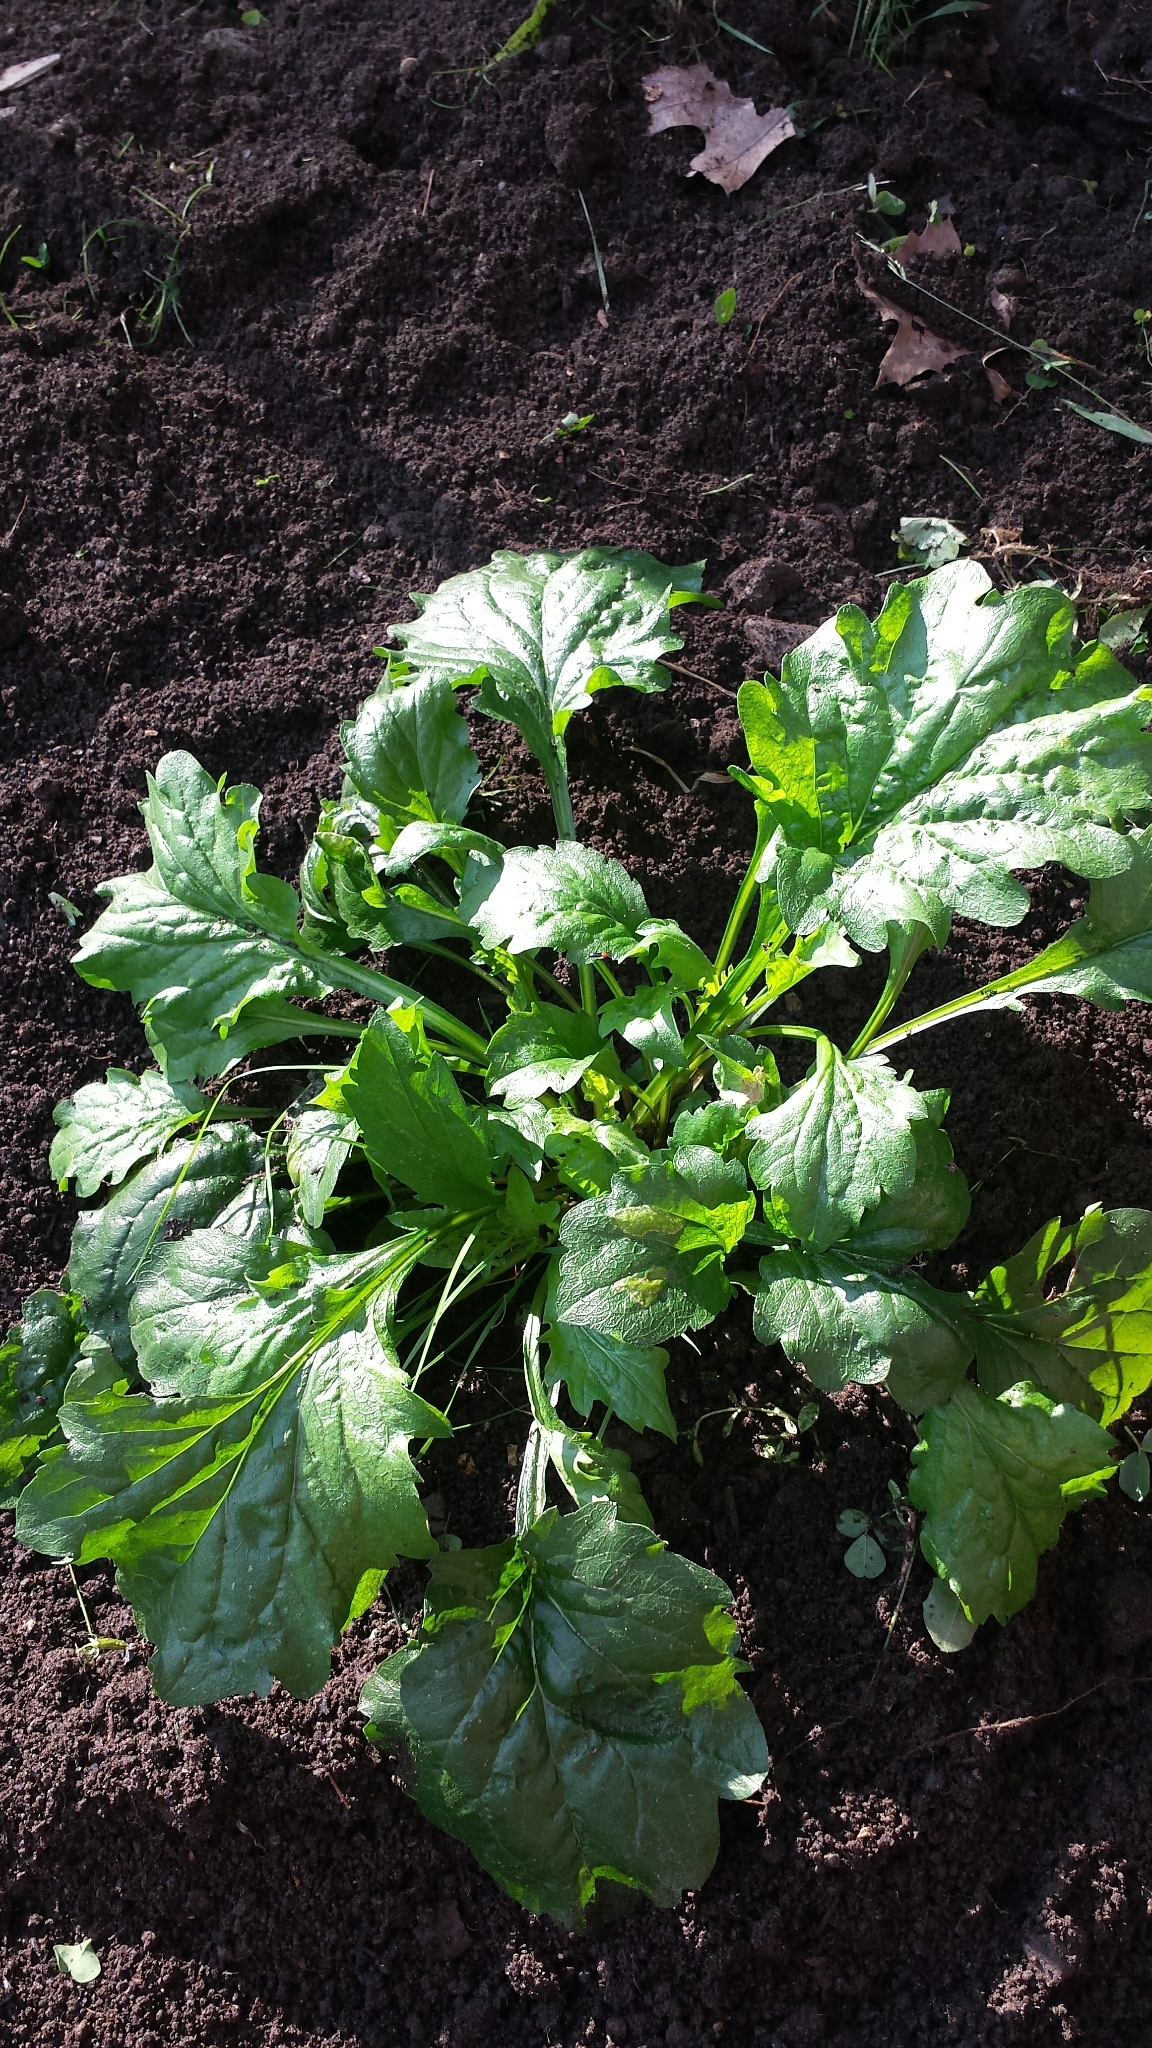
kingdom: Plantae
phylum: Tracheophyta
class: Magnoliopsida
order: Asterales
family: Asteraceae
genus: Erigeron
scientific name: Erigeron annuus
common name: Tall fleabane
